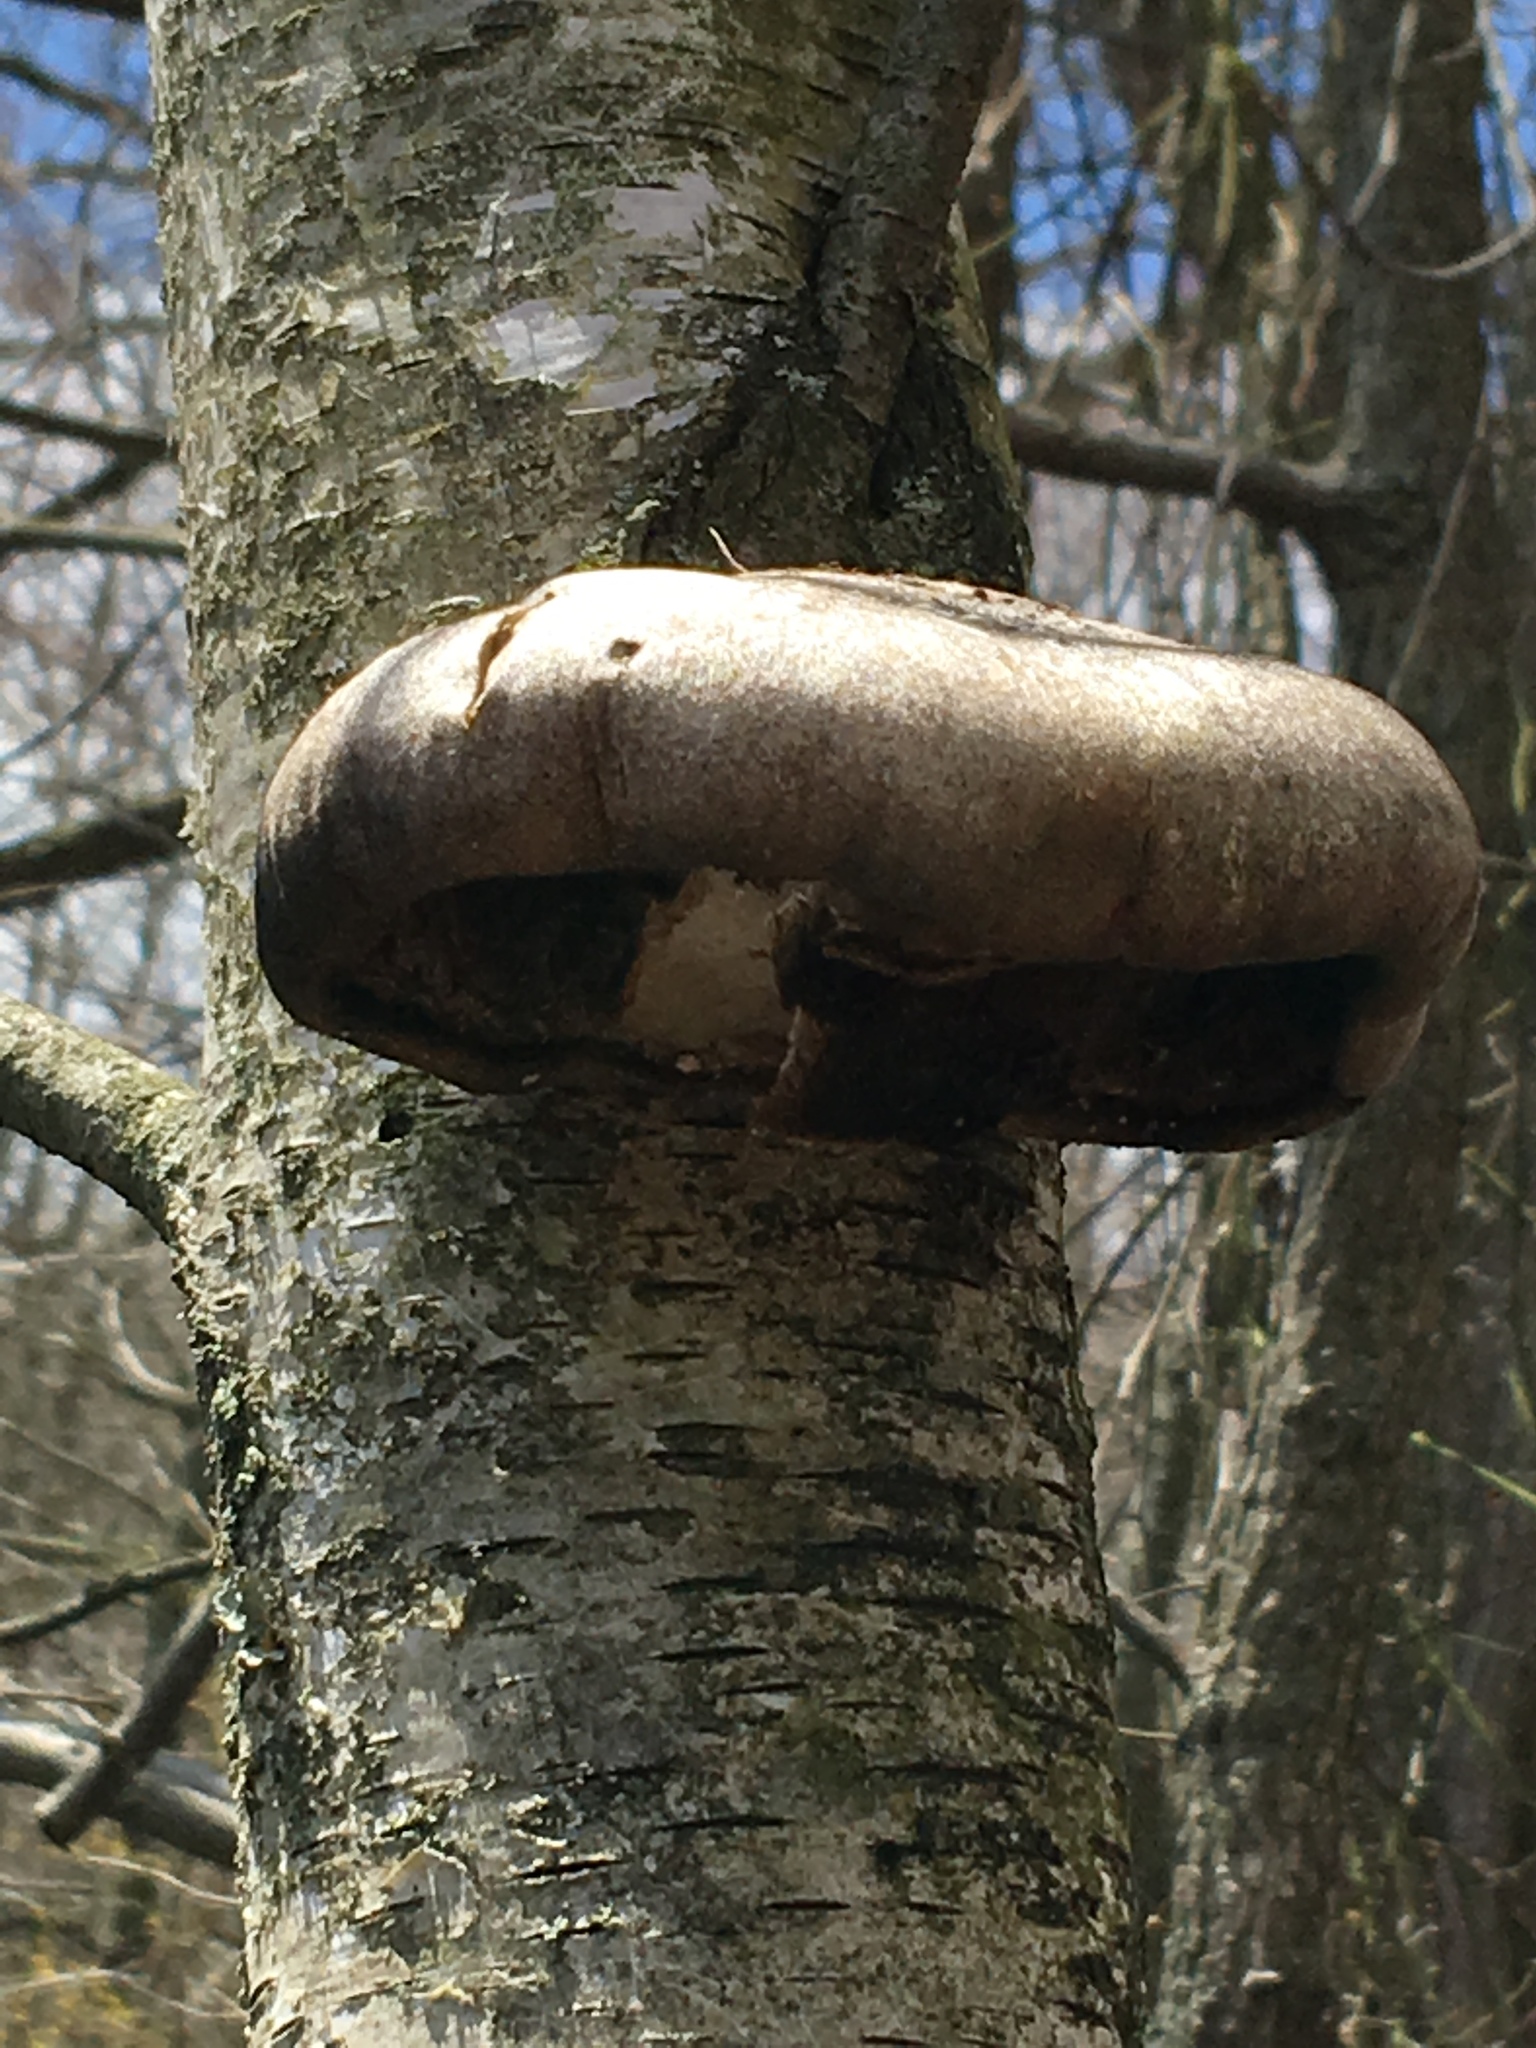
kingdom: Fungi
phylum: Basidiomycota
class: Agaricomycetes
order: Polyporales
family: Fomitopsidaceae
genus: Fomitopsis
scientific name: Fomitopsis betulina
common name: Birch polypore
